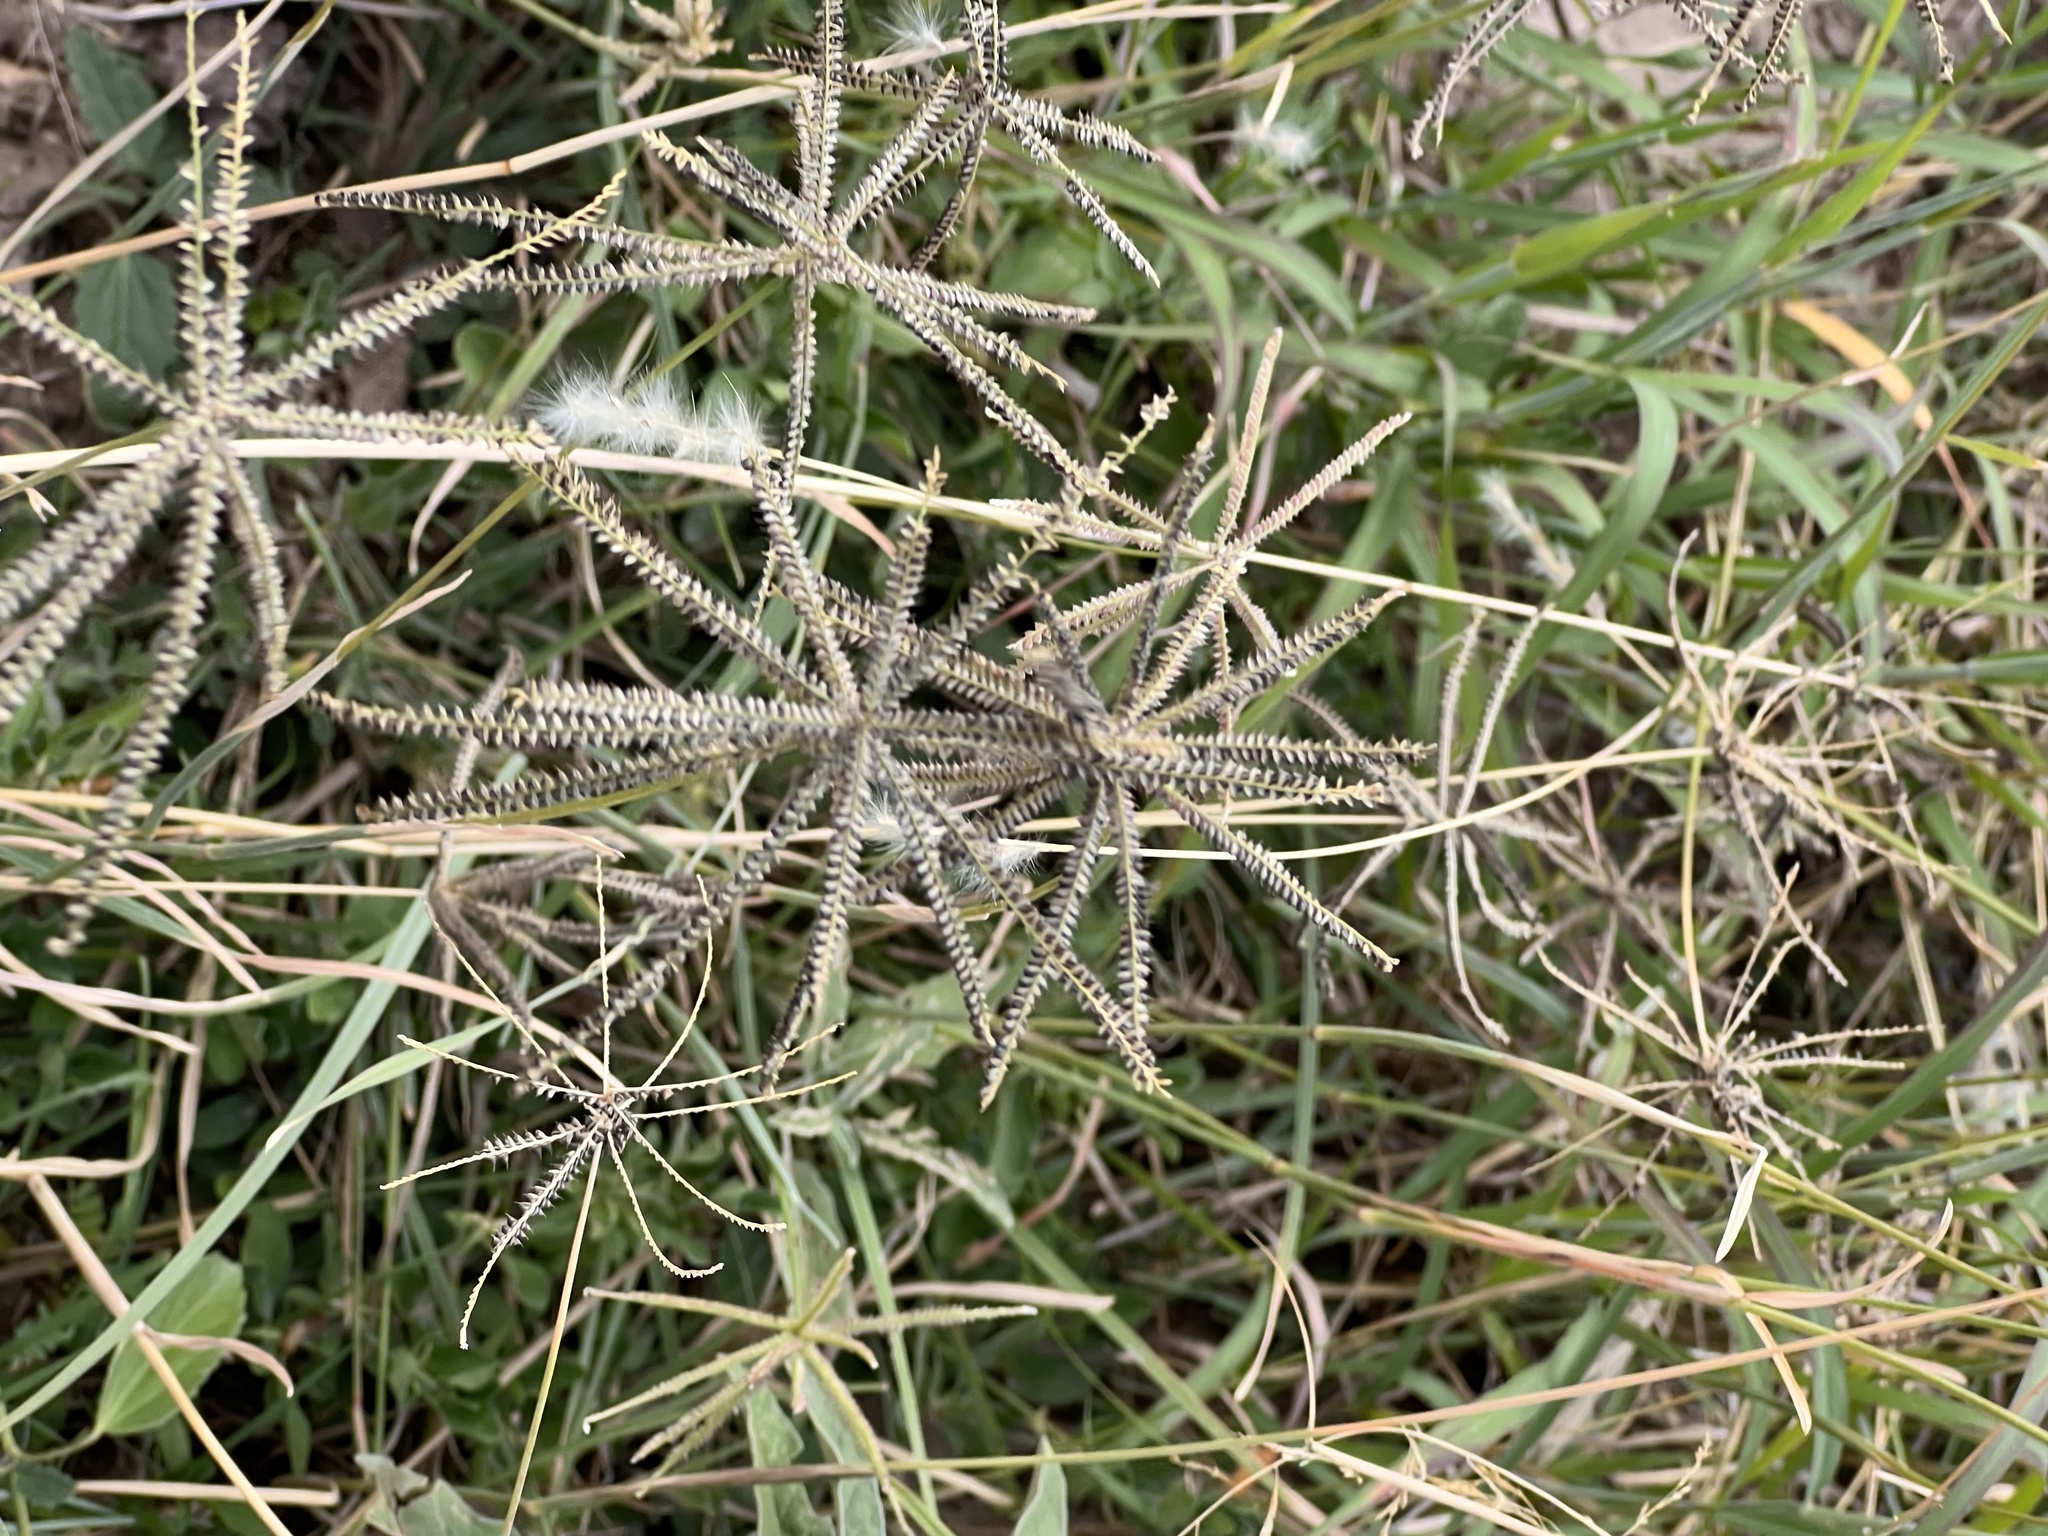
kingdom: Plantae
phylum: Tracheophyta
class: Liliopsida
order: Poales
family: Poaceae
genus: Chloris
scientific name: Chloris cucullata
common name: Hooded windmill grass
